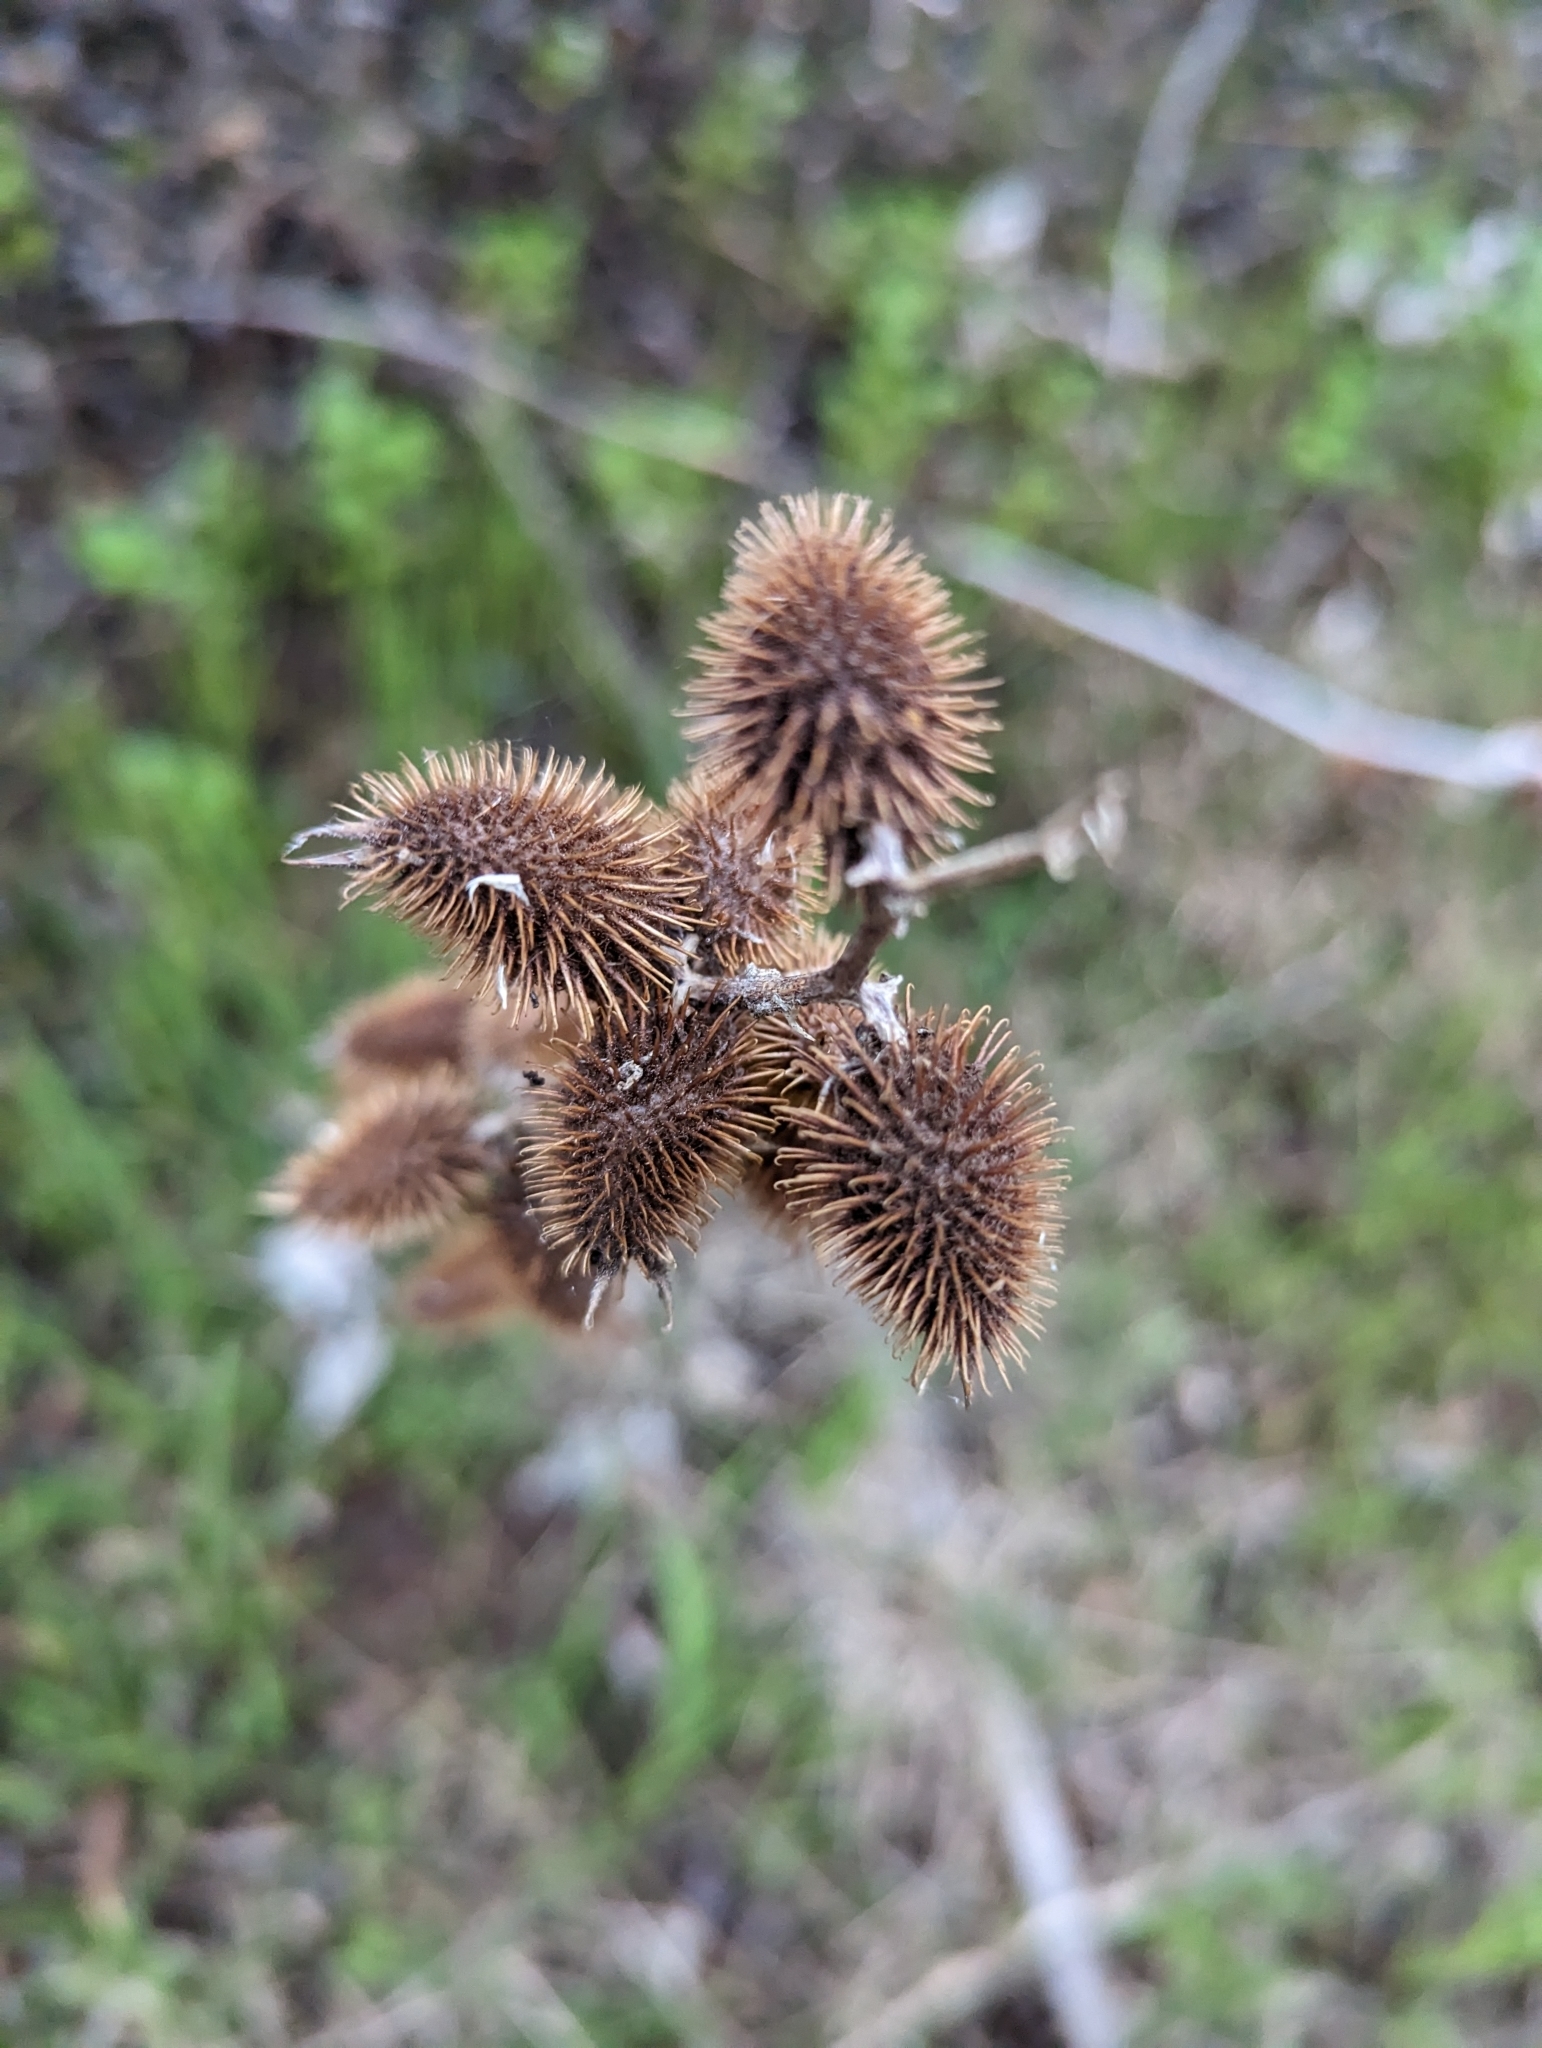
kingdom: Plantae
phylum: Tracheophyta
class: Magnoliopsida
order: Asterales
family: Asteraceae
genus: Xanthium
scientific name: Xanthium orientale
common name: Californian burr
